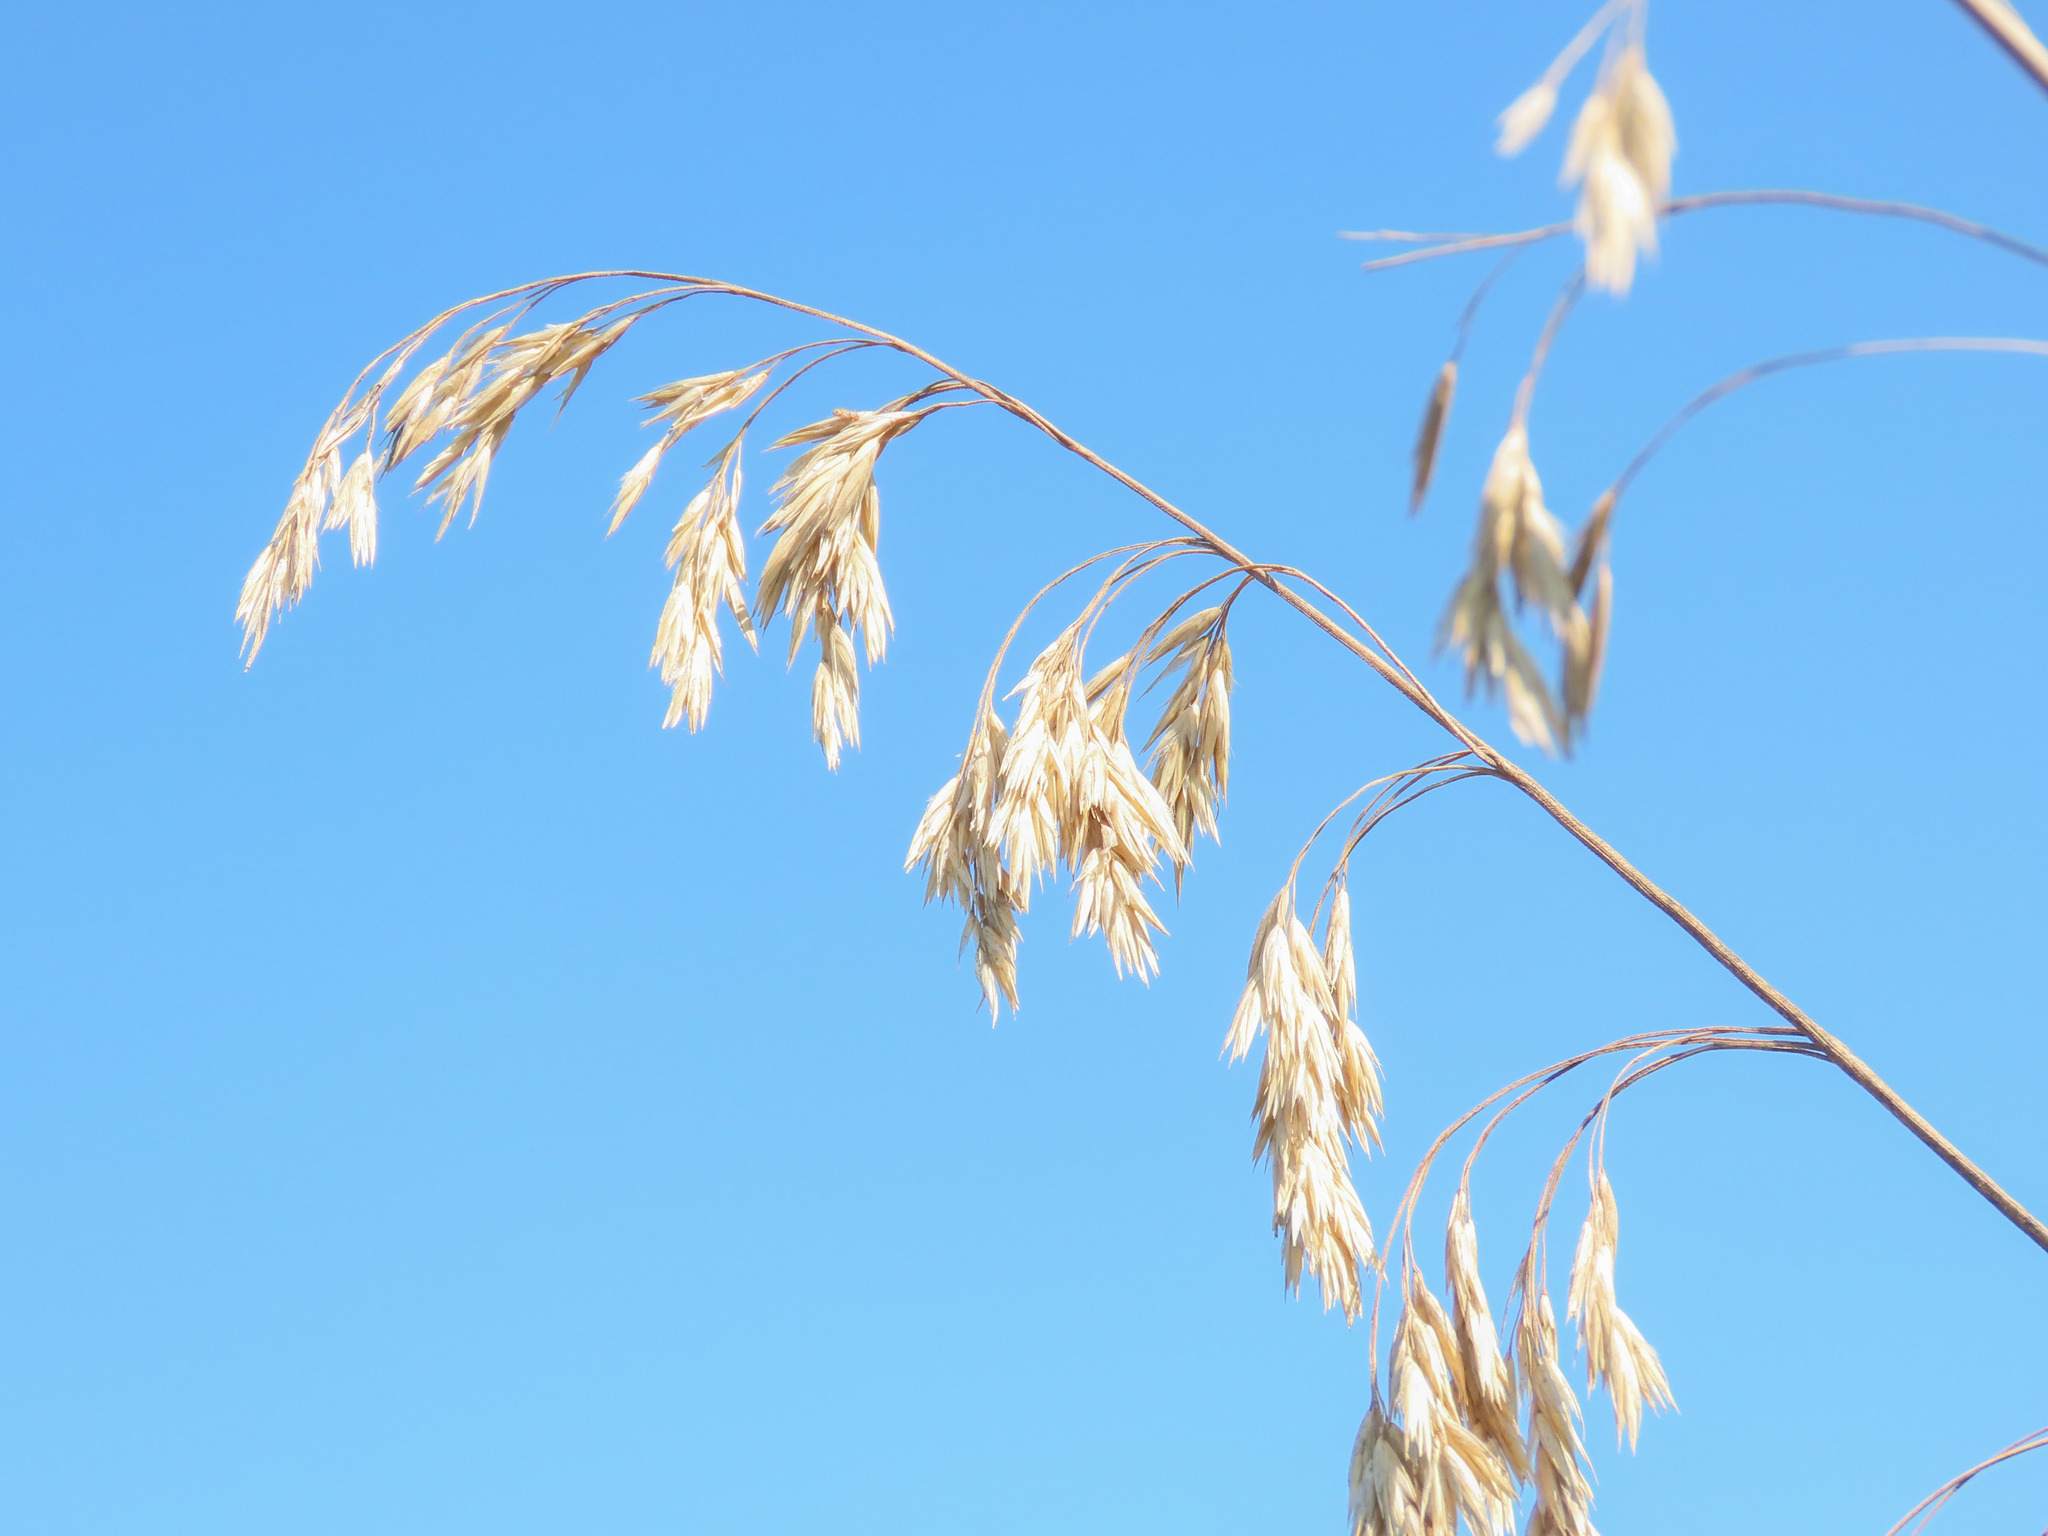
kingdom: Plantae
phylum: Tracheophyta
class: Liliopsida
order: Poales
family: Poaceae
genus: Ampelodesmos
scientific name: Ampelodesmos mauritanicus
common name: Mauritanian grass
